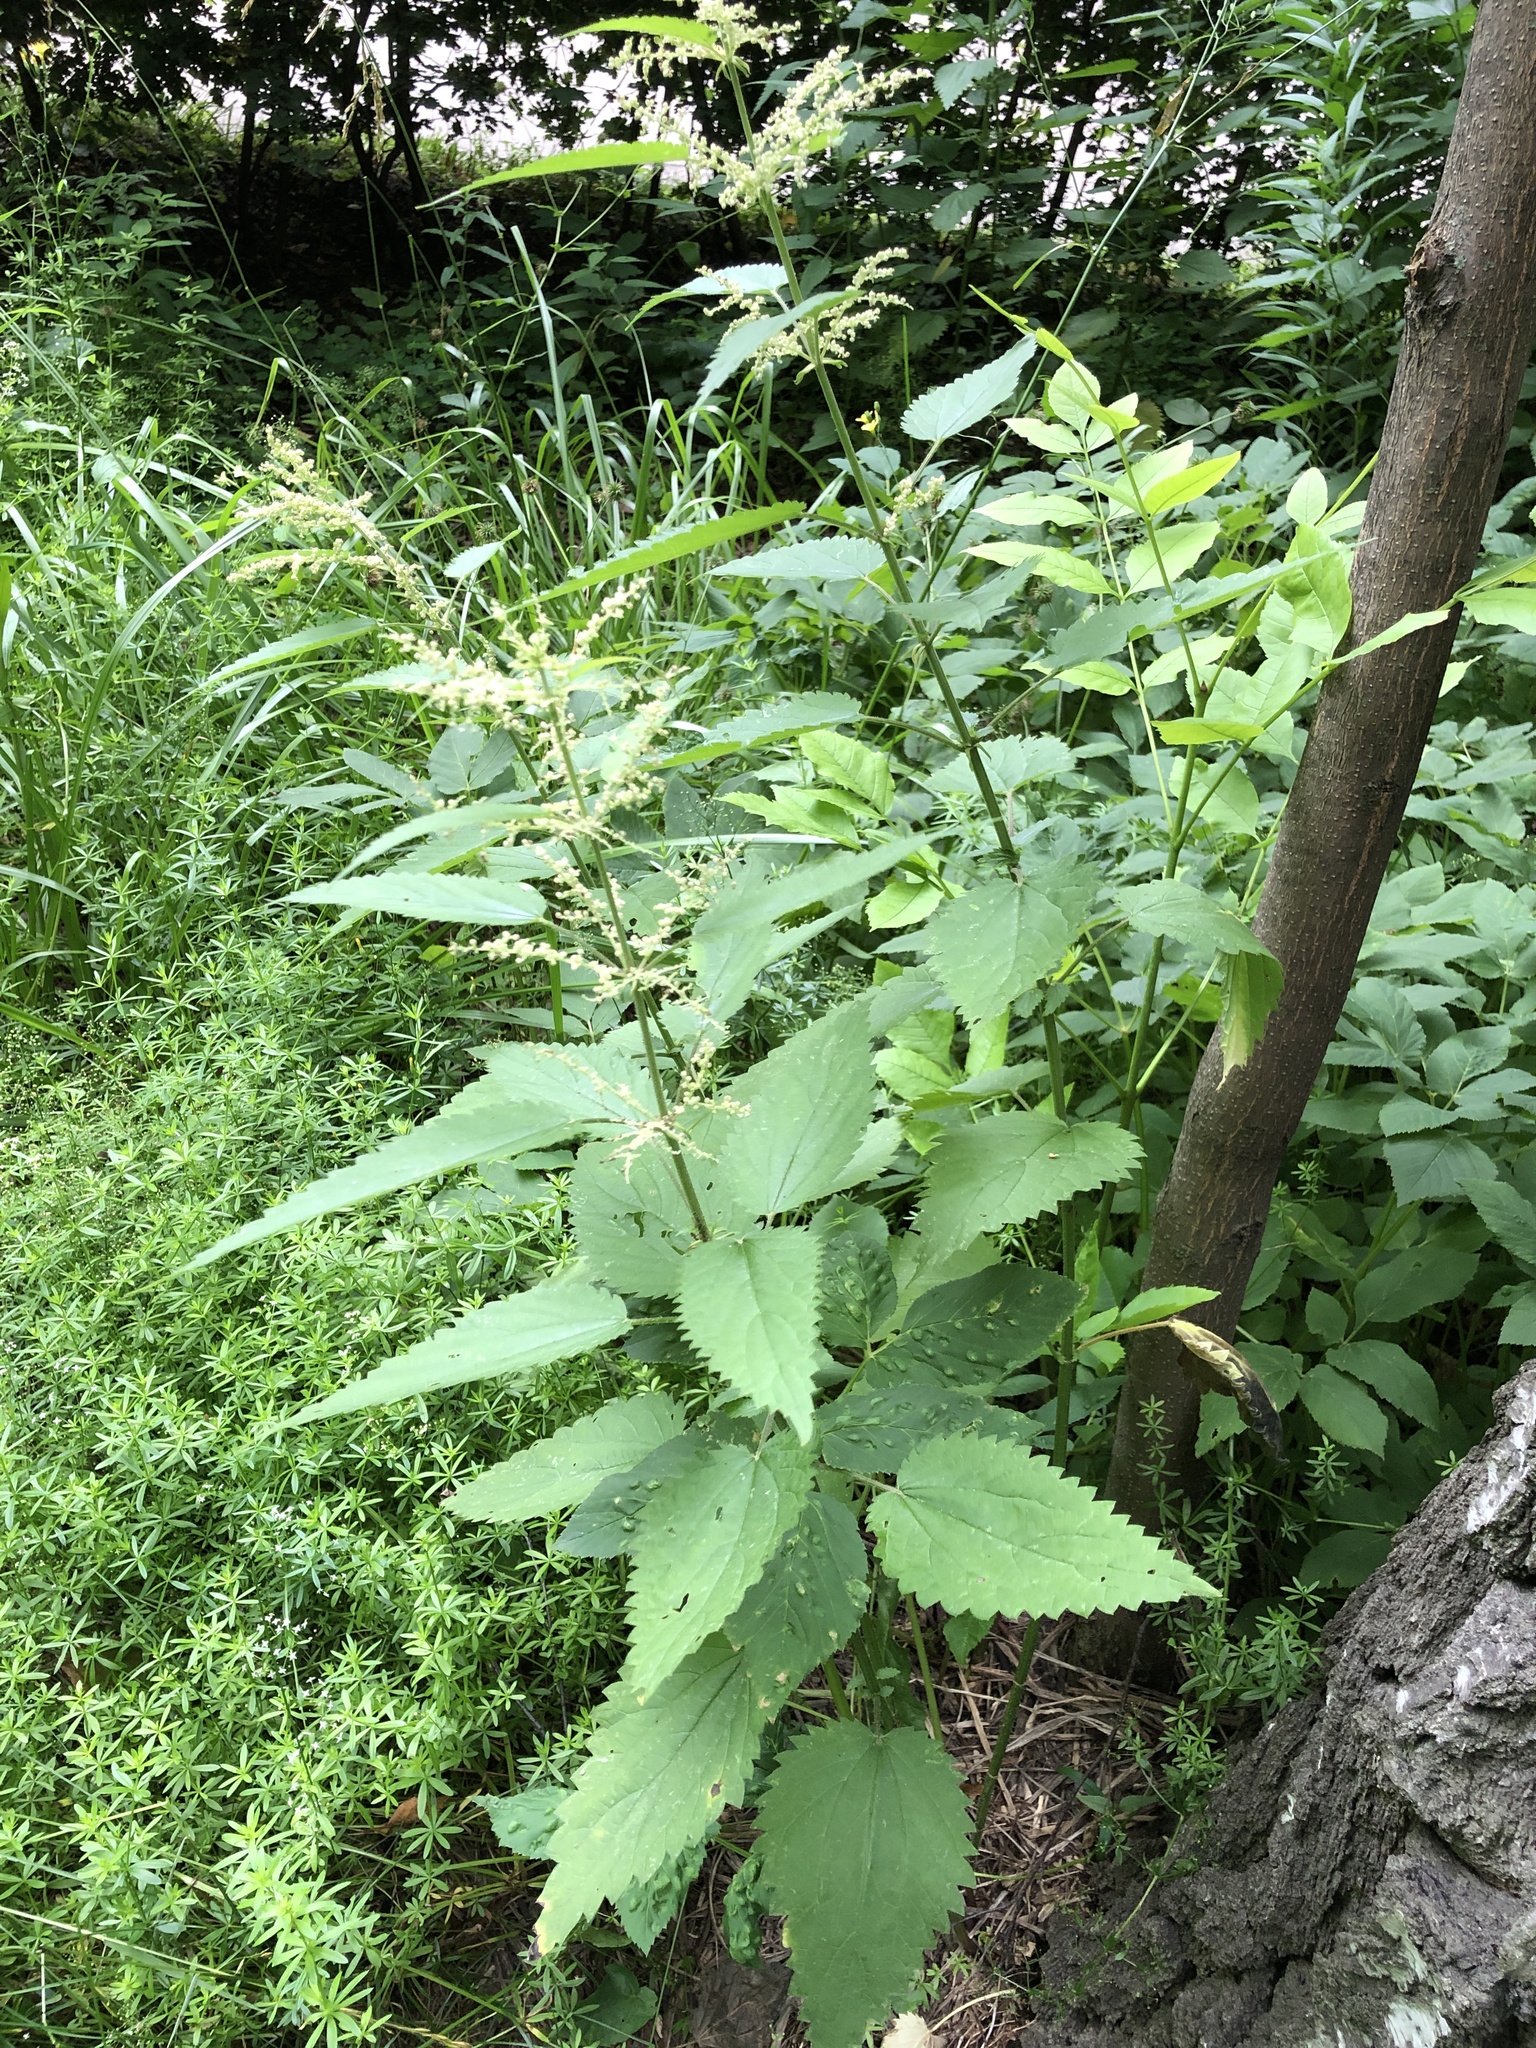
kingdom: Plantae
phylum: Tracheophyta
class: Magnoliopsida
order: Rosales
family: Urticaceae
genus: Urtica
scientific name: Urtica dioica
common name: Common nettle
